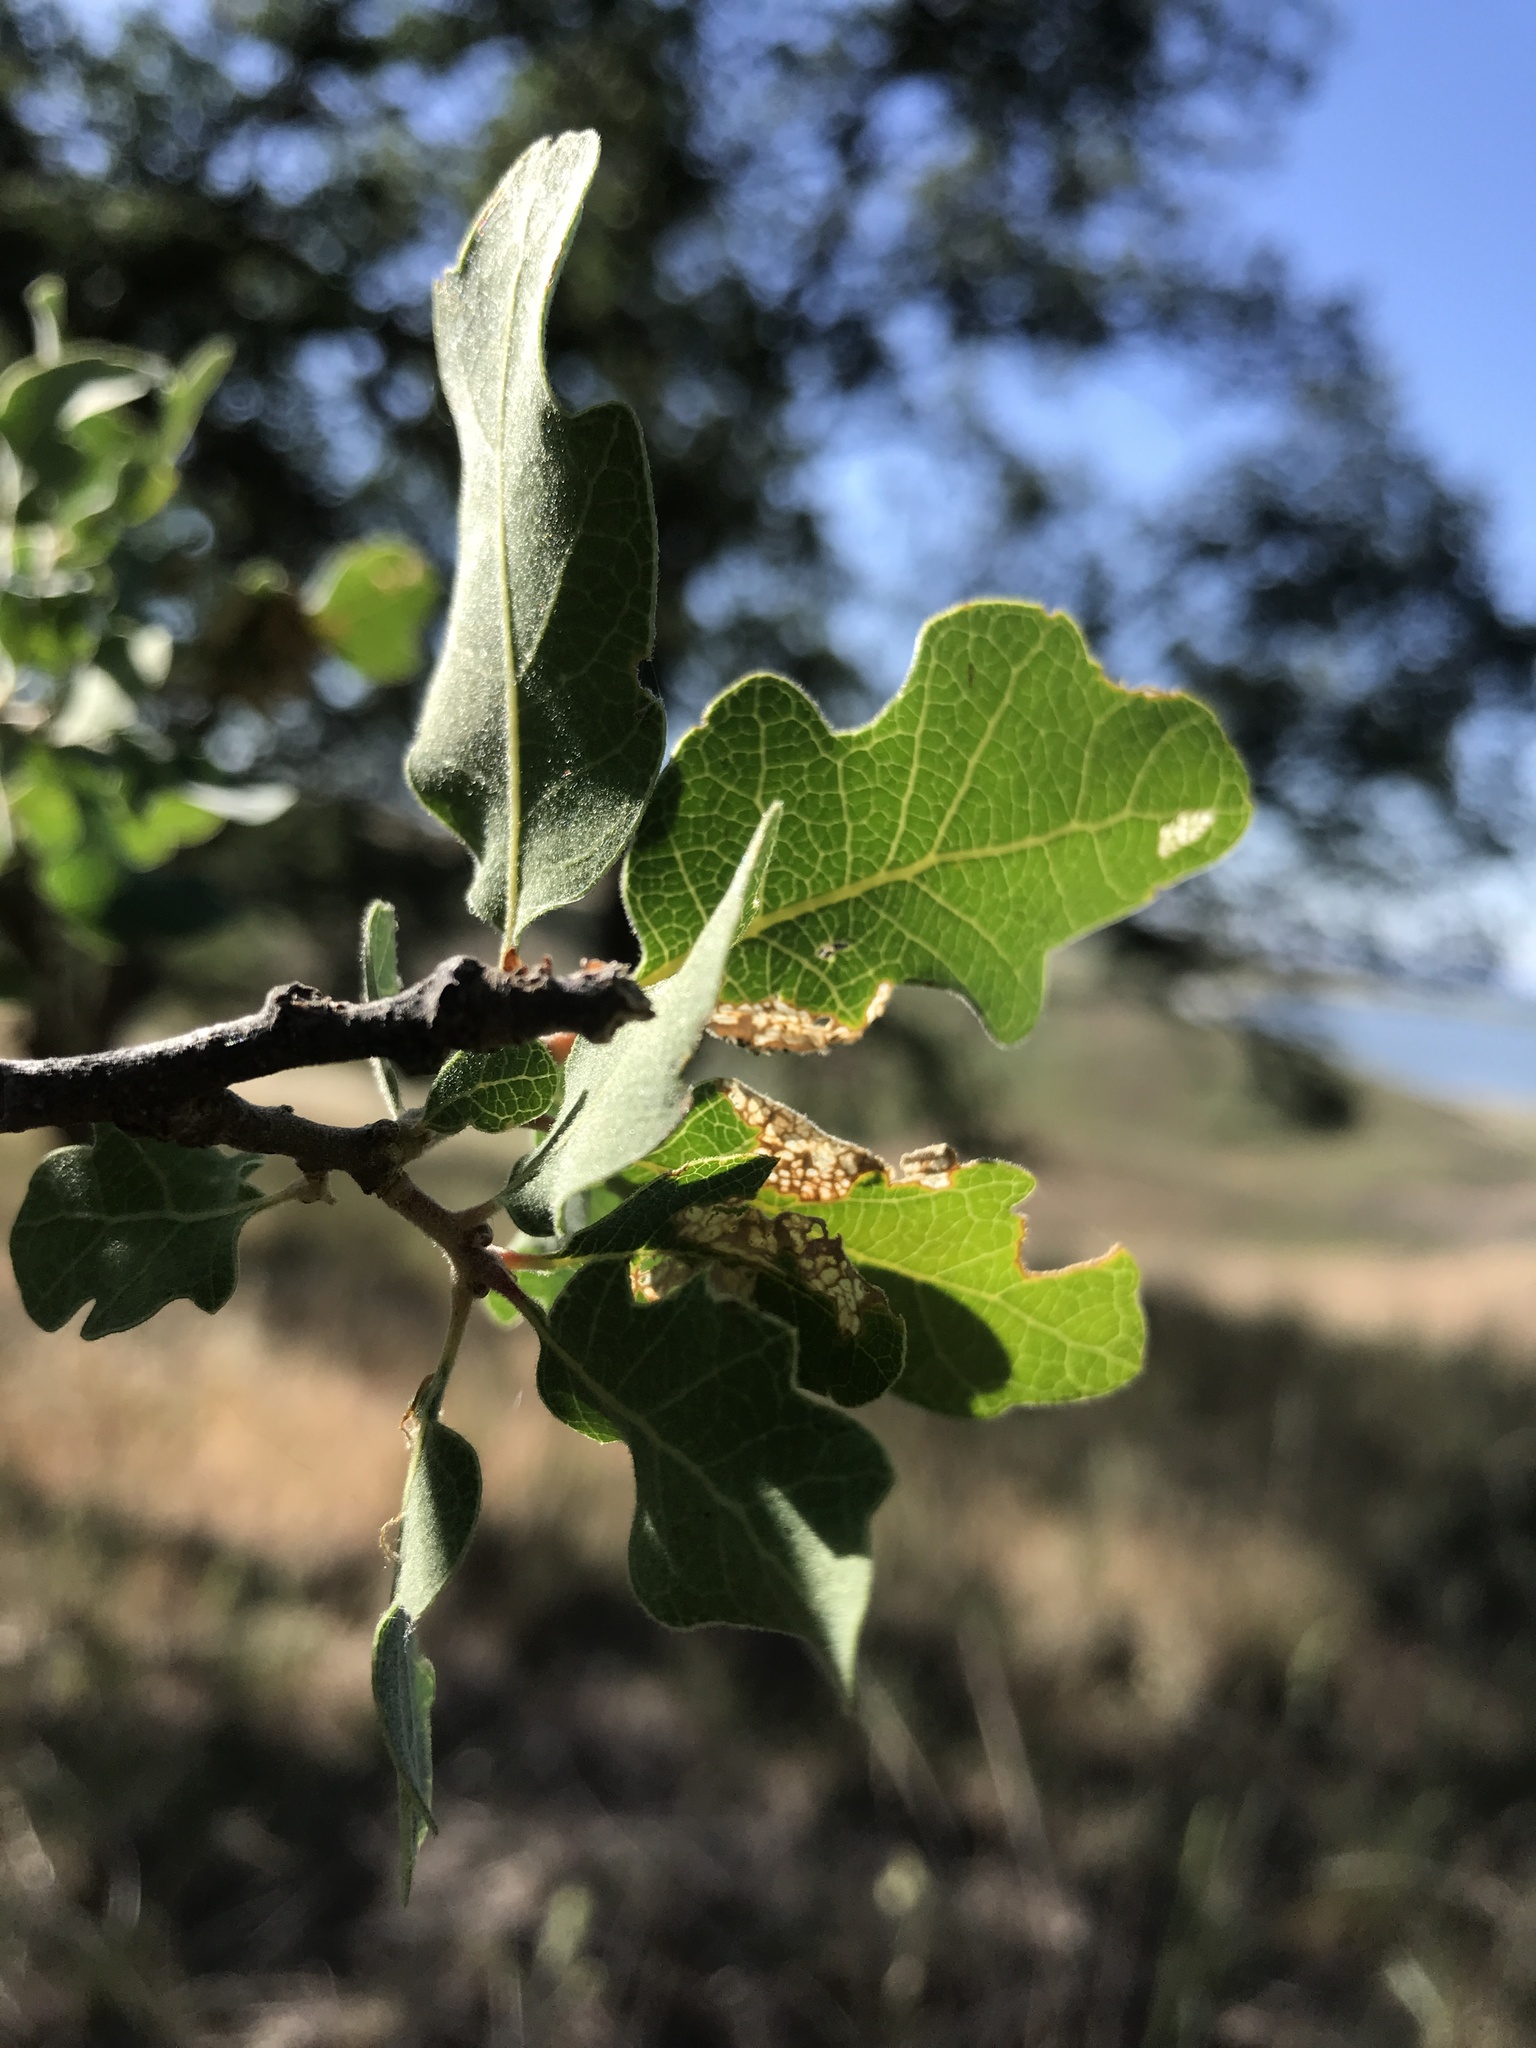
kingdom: Plantae
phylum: Tracheophyta
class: Magnoliopsida
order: Fagales
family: Fagaceae
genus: Quercus
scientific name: Quercus douglasii
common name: Blue oak
